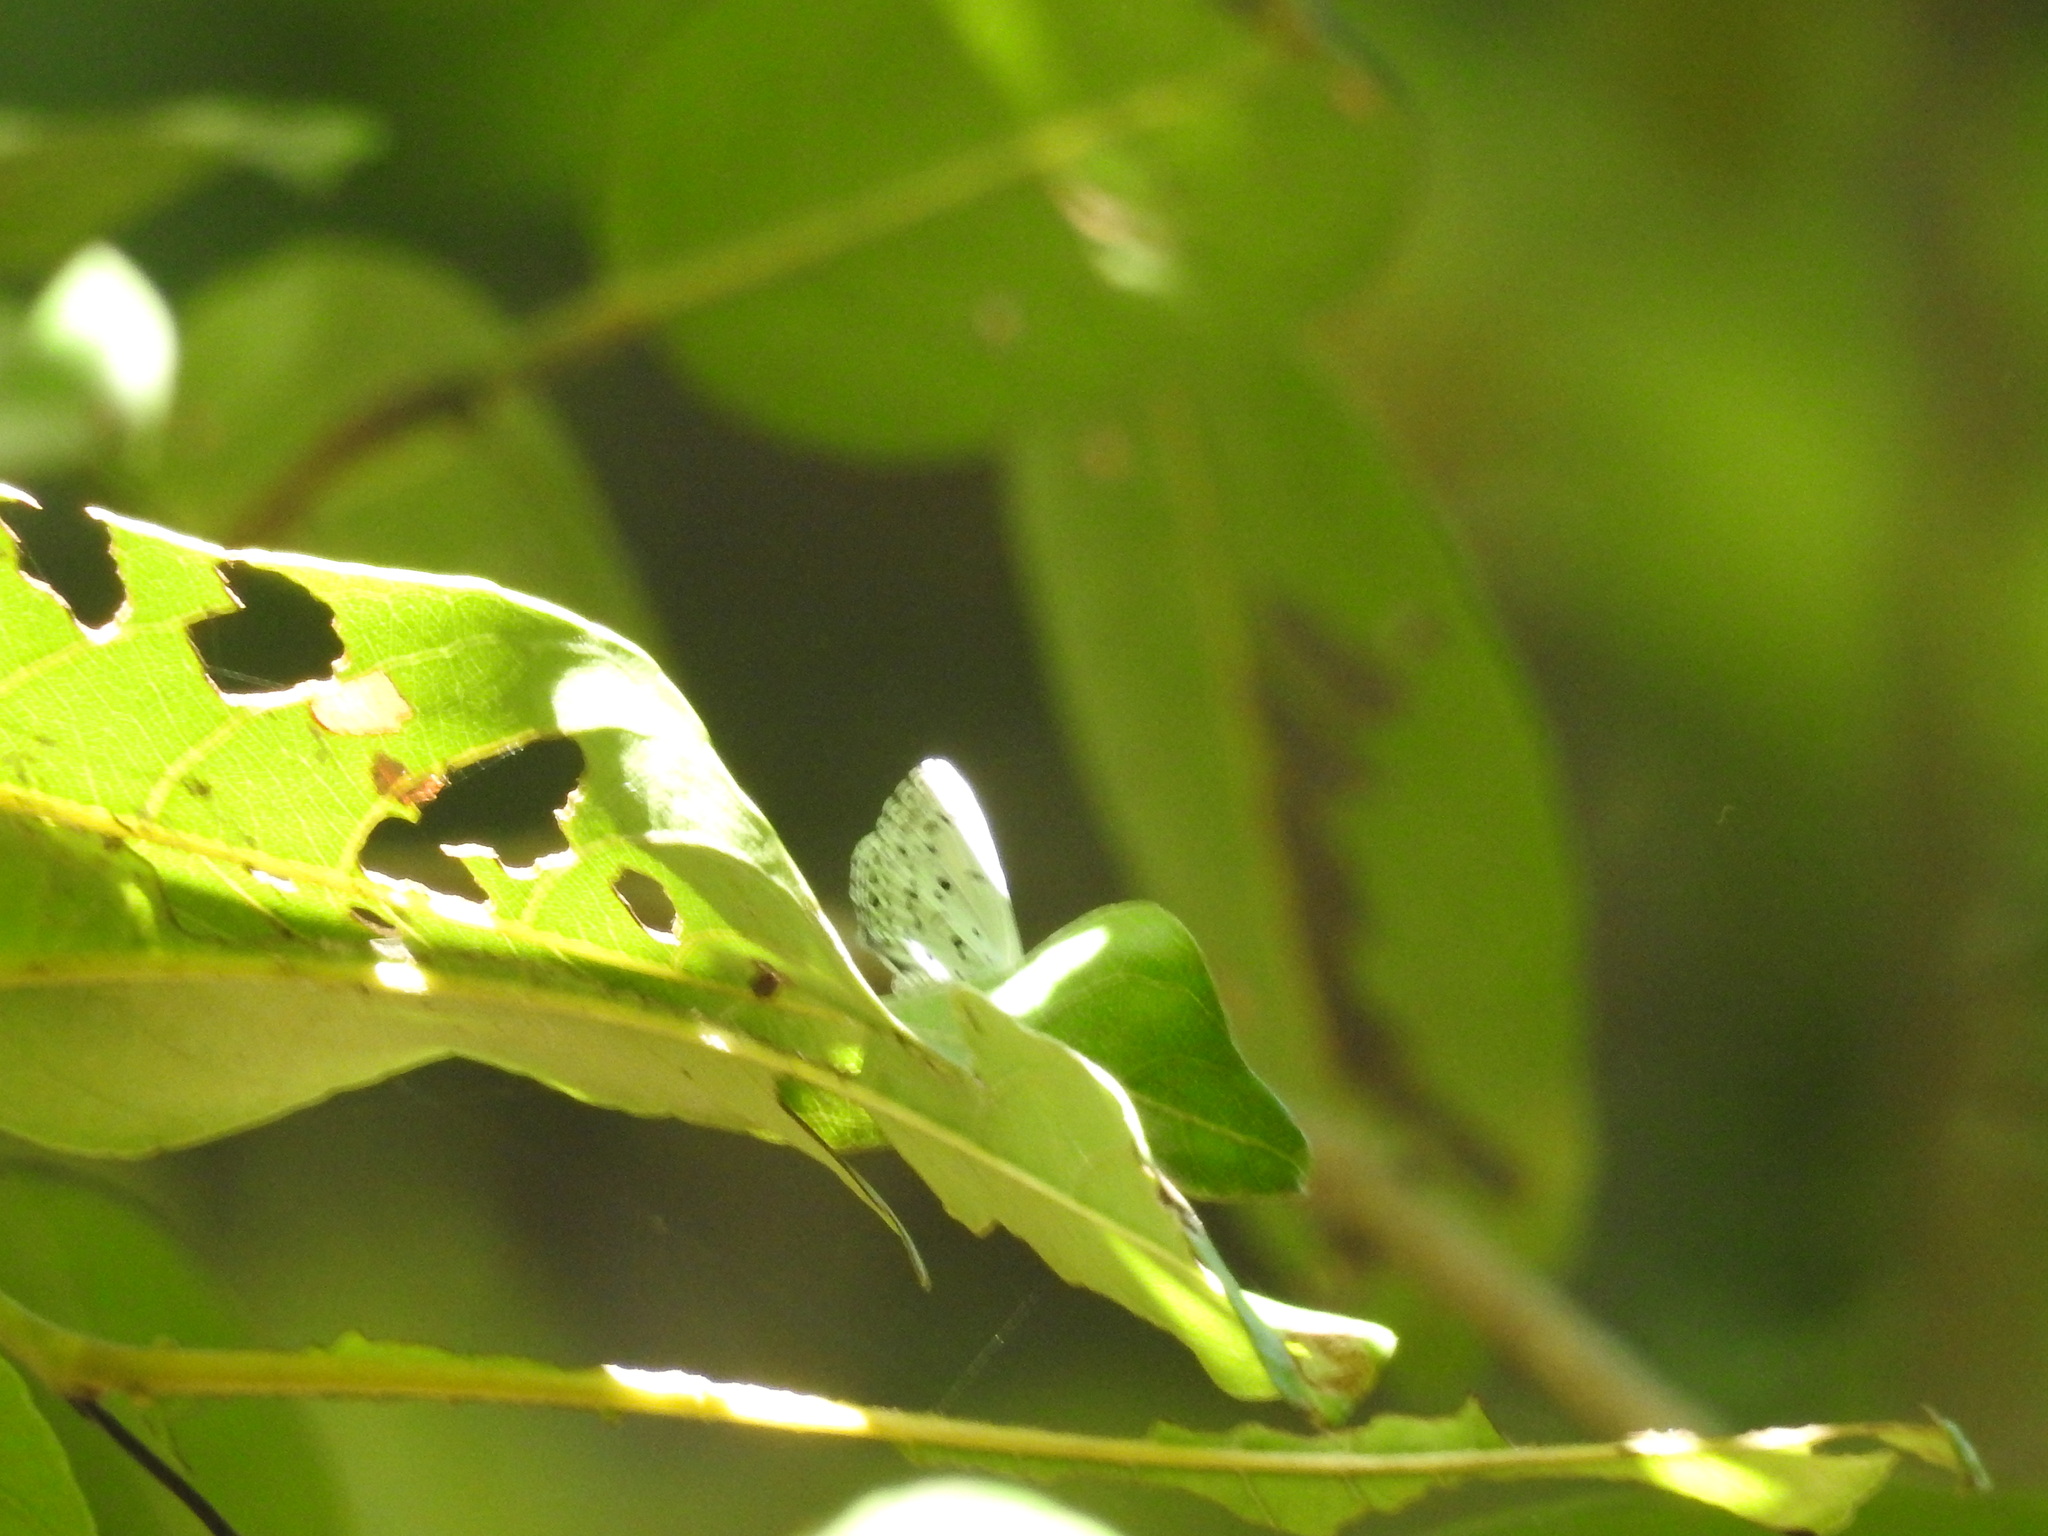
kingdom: Animalia
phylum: Arthropoda
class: Insecta
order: Lepidoptera
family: Lycaenidae
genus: Acytolepis
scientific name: Acytolepis puspa
